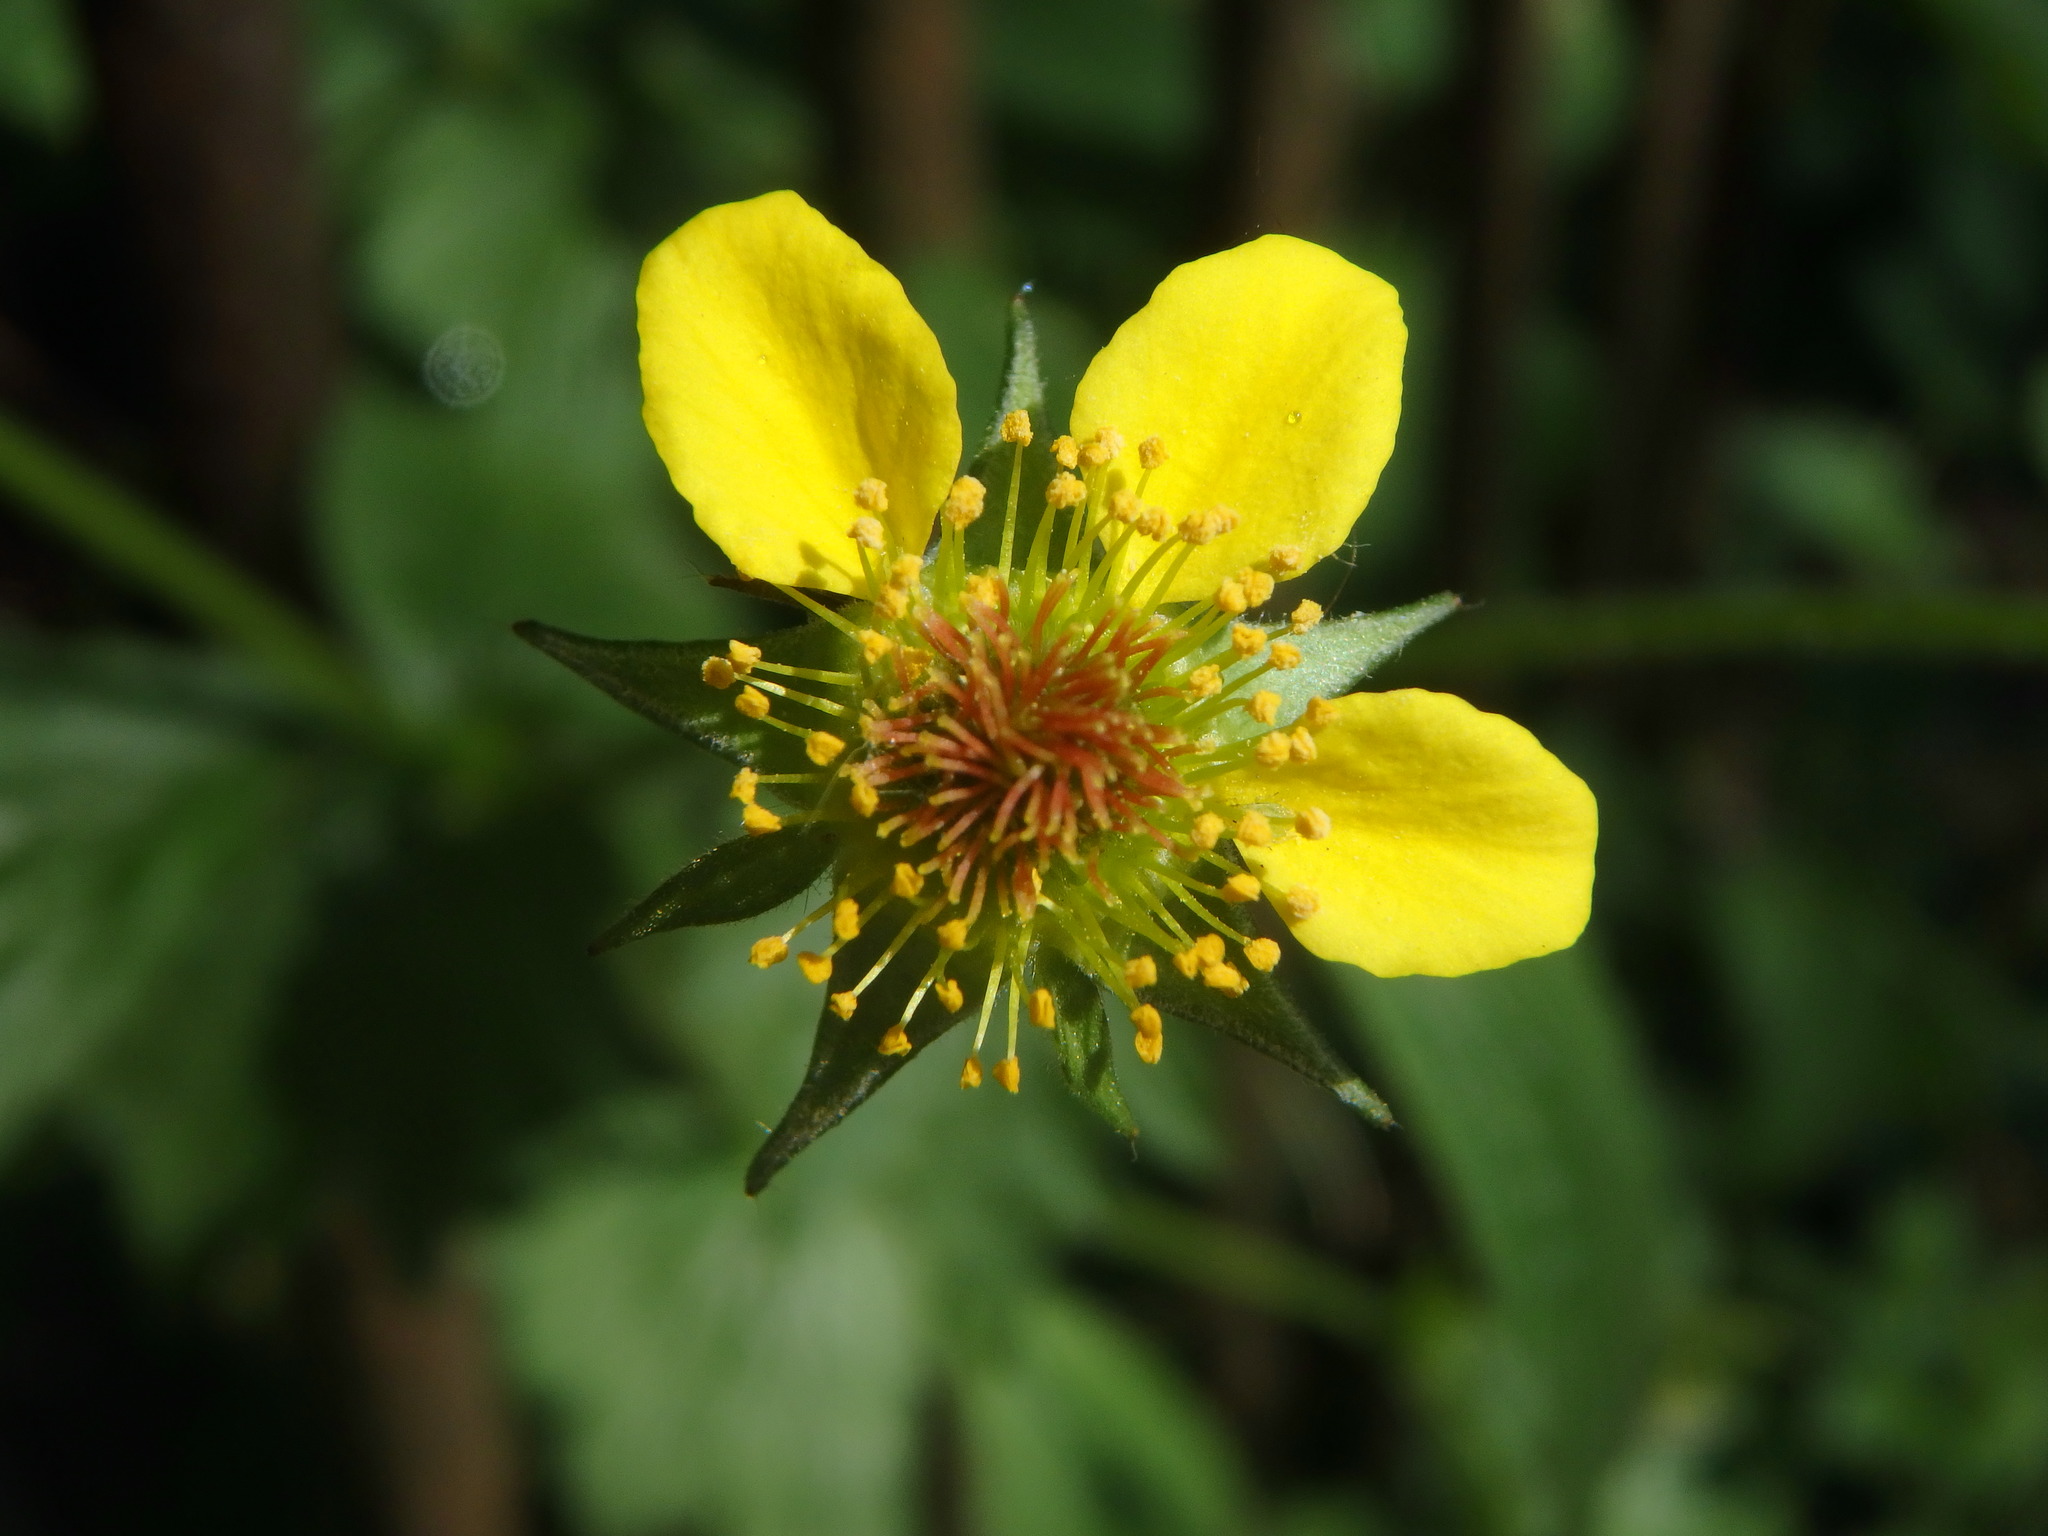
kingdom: Plantae
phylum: Tracheophyta
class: Magnoliopsida
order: Rosales
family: Rosaceae
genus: Geum
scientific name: Geum urbanum
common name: Wood avens
